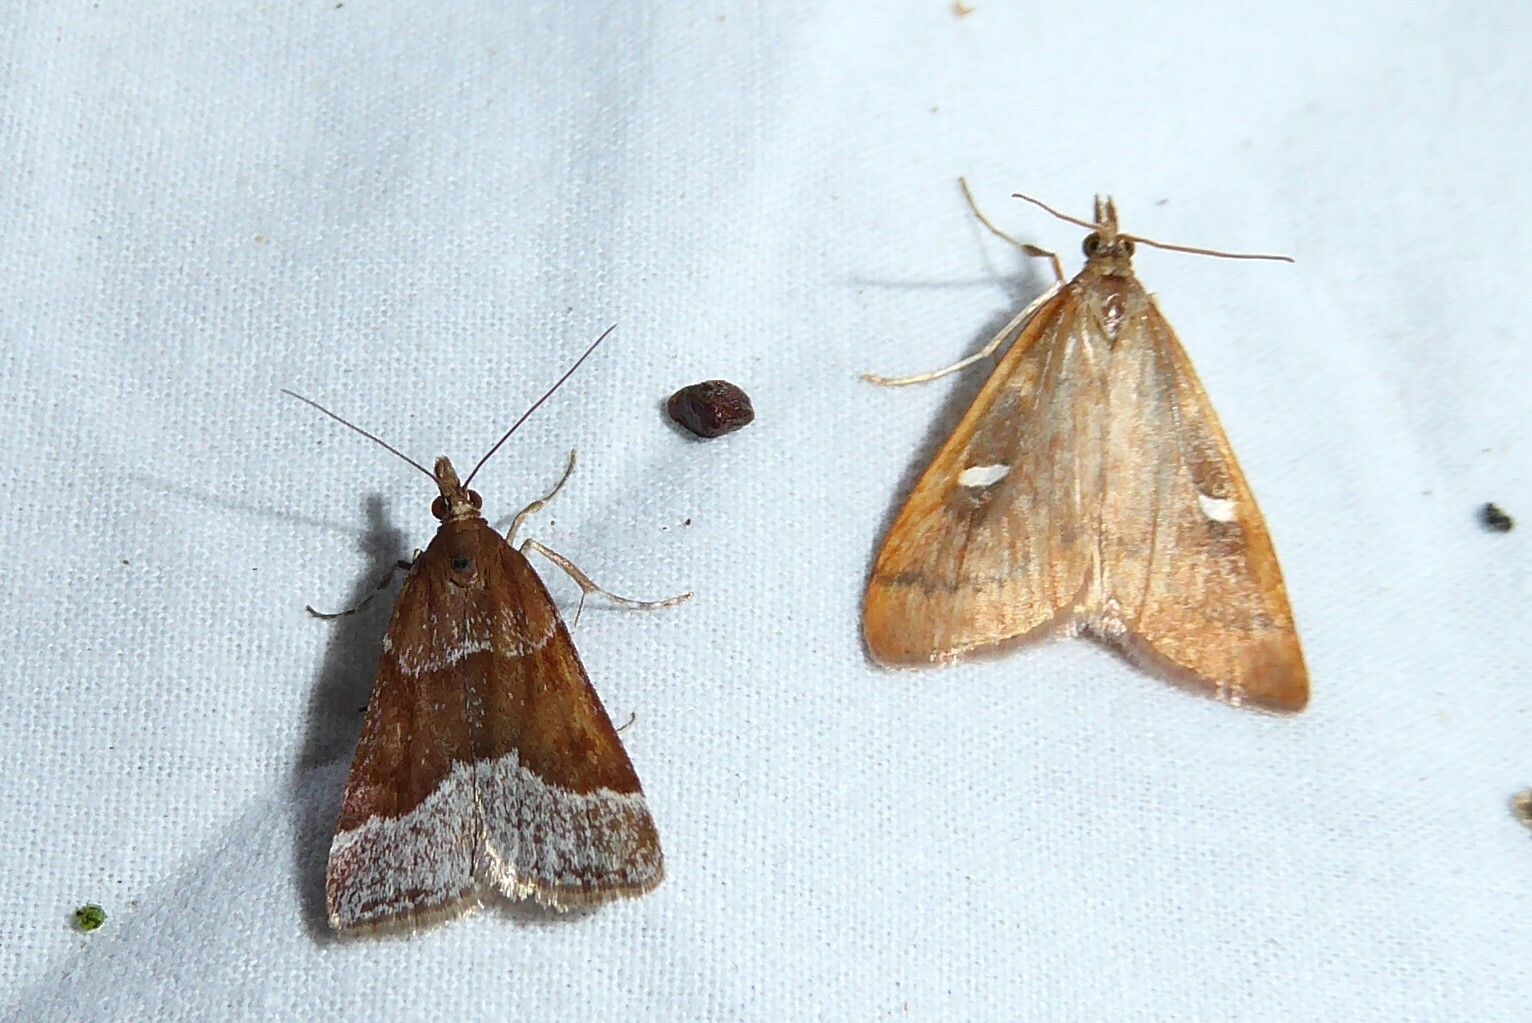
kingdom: Animalia
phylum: Arthropoda
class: Insecta
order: Lepidoptera
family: Crambidae
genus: Eudonia
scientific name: Eudonia feredayi
